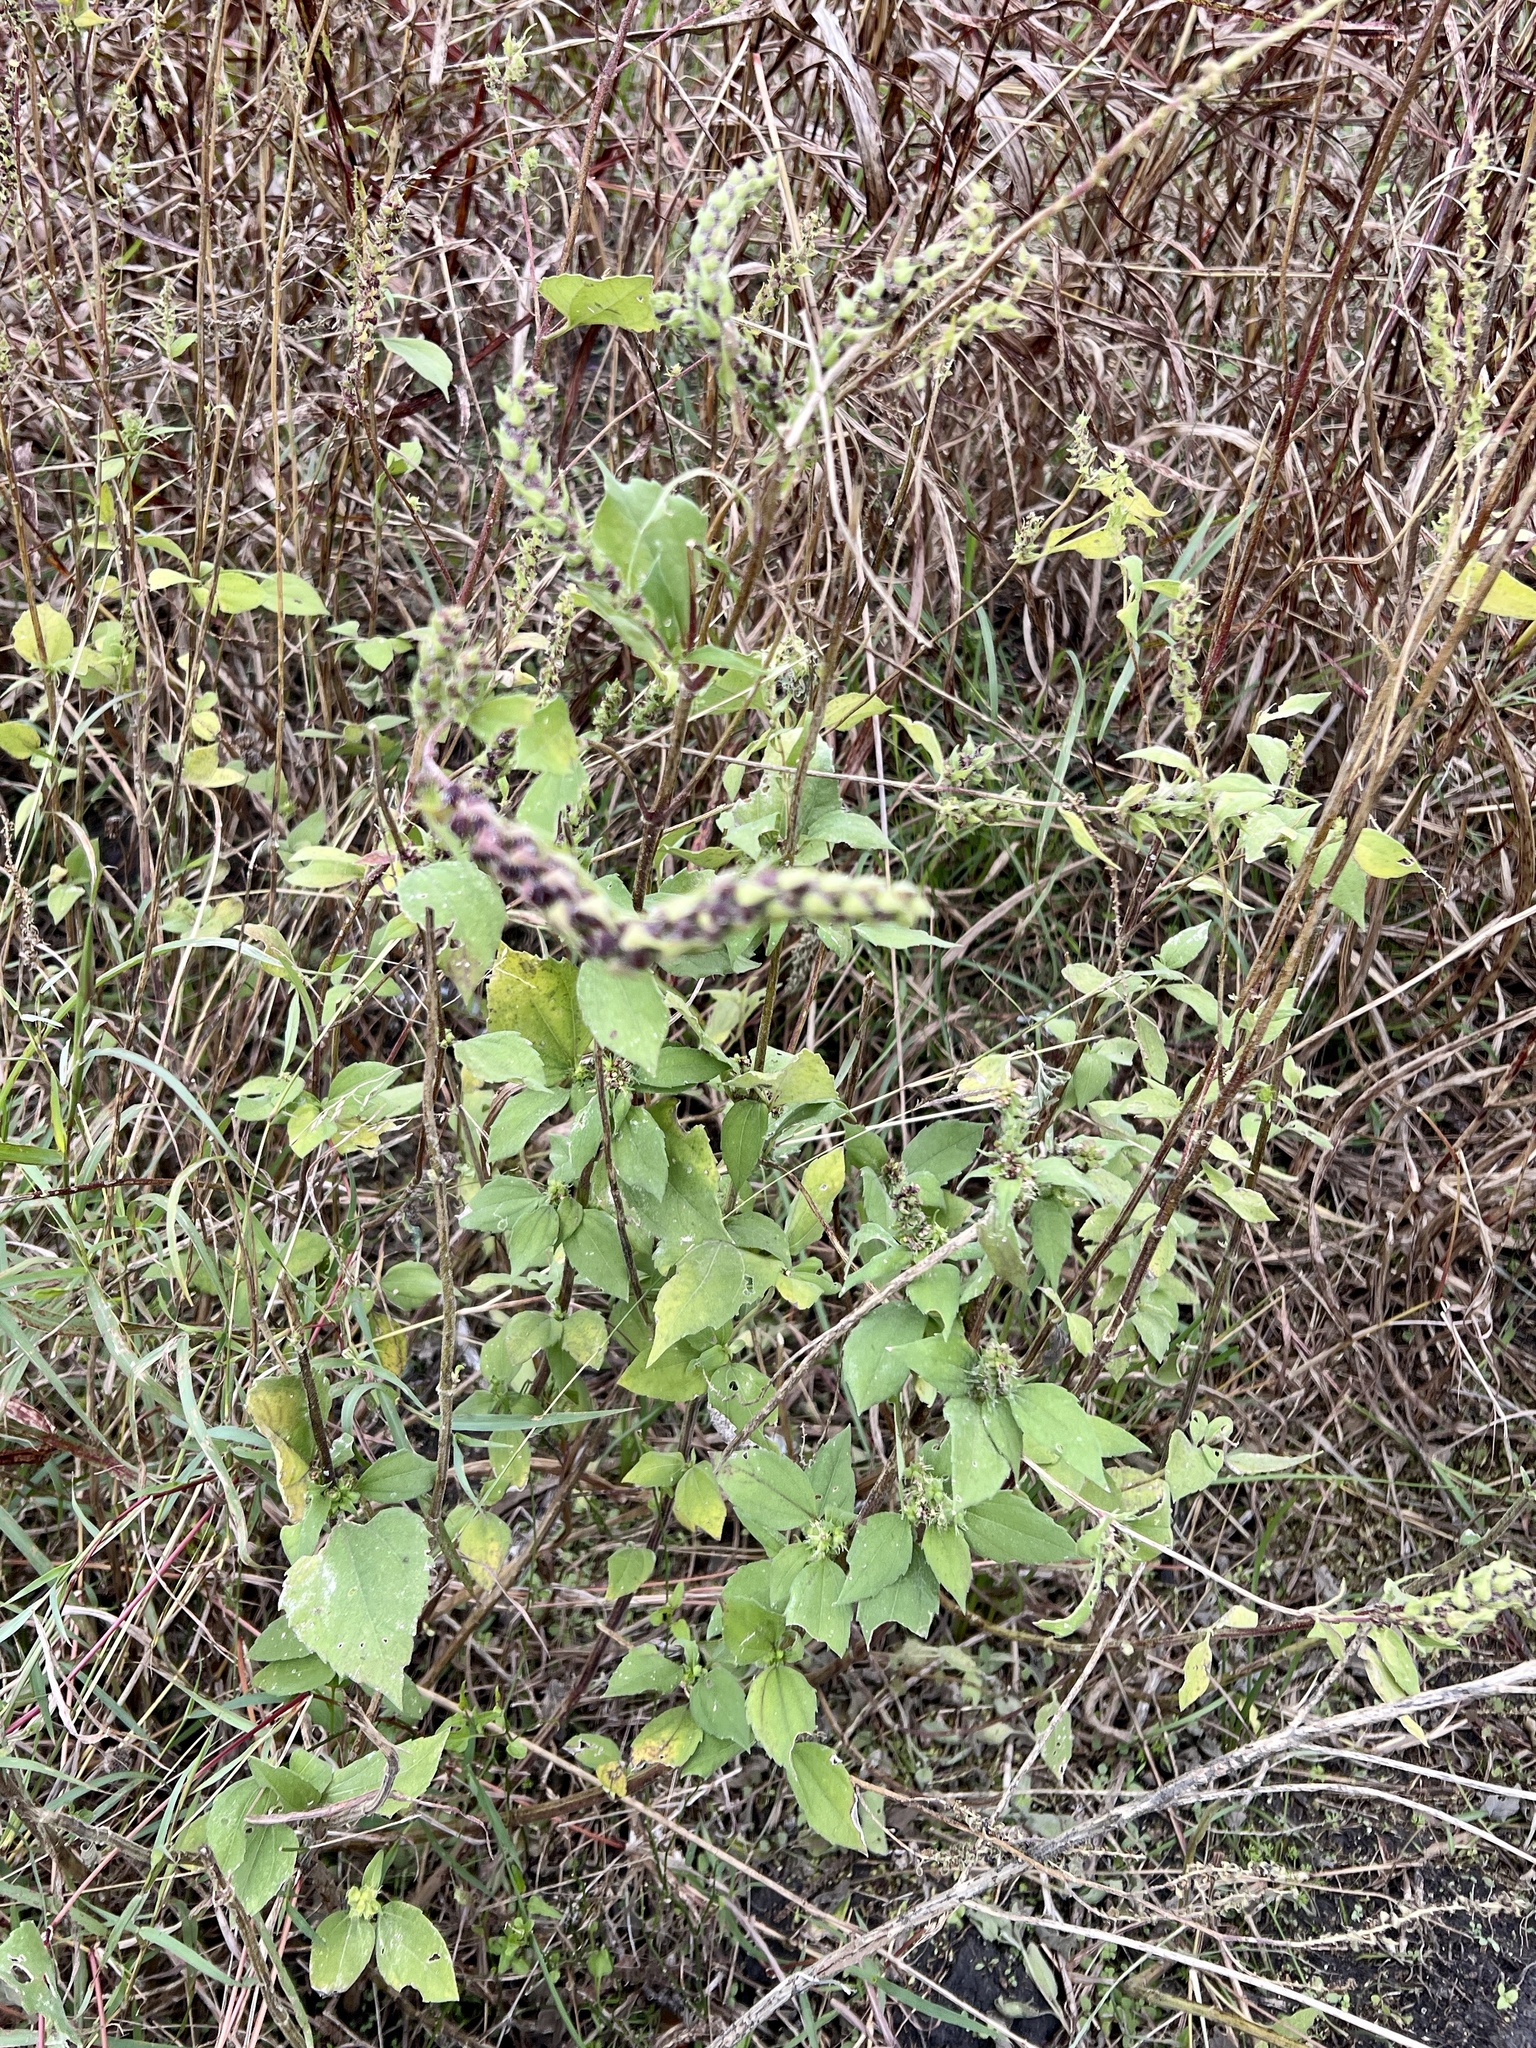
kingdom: Plantae
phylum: Tracheophyta
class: Magnoliopsida
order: Asterales
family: Asteraceae
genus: Iva
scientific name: Iva annua
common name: Marsh-elder
